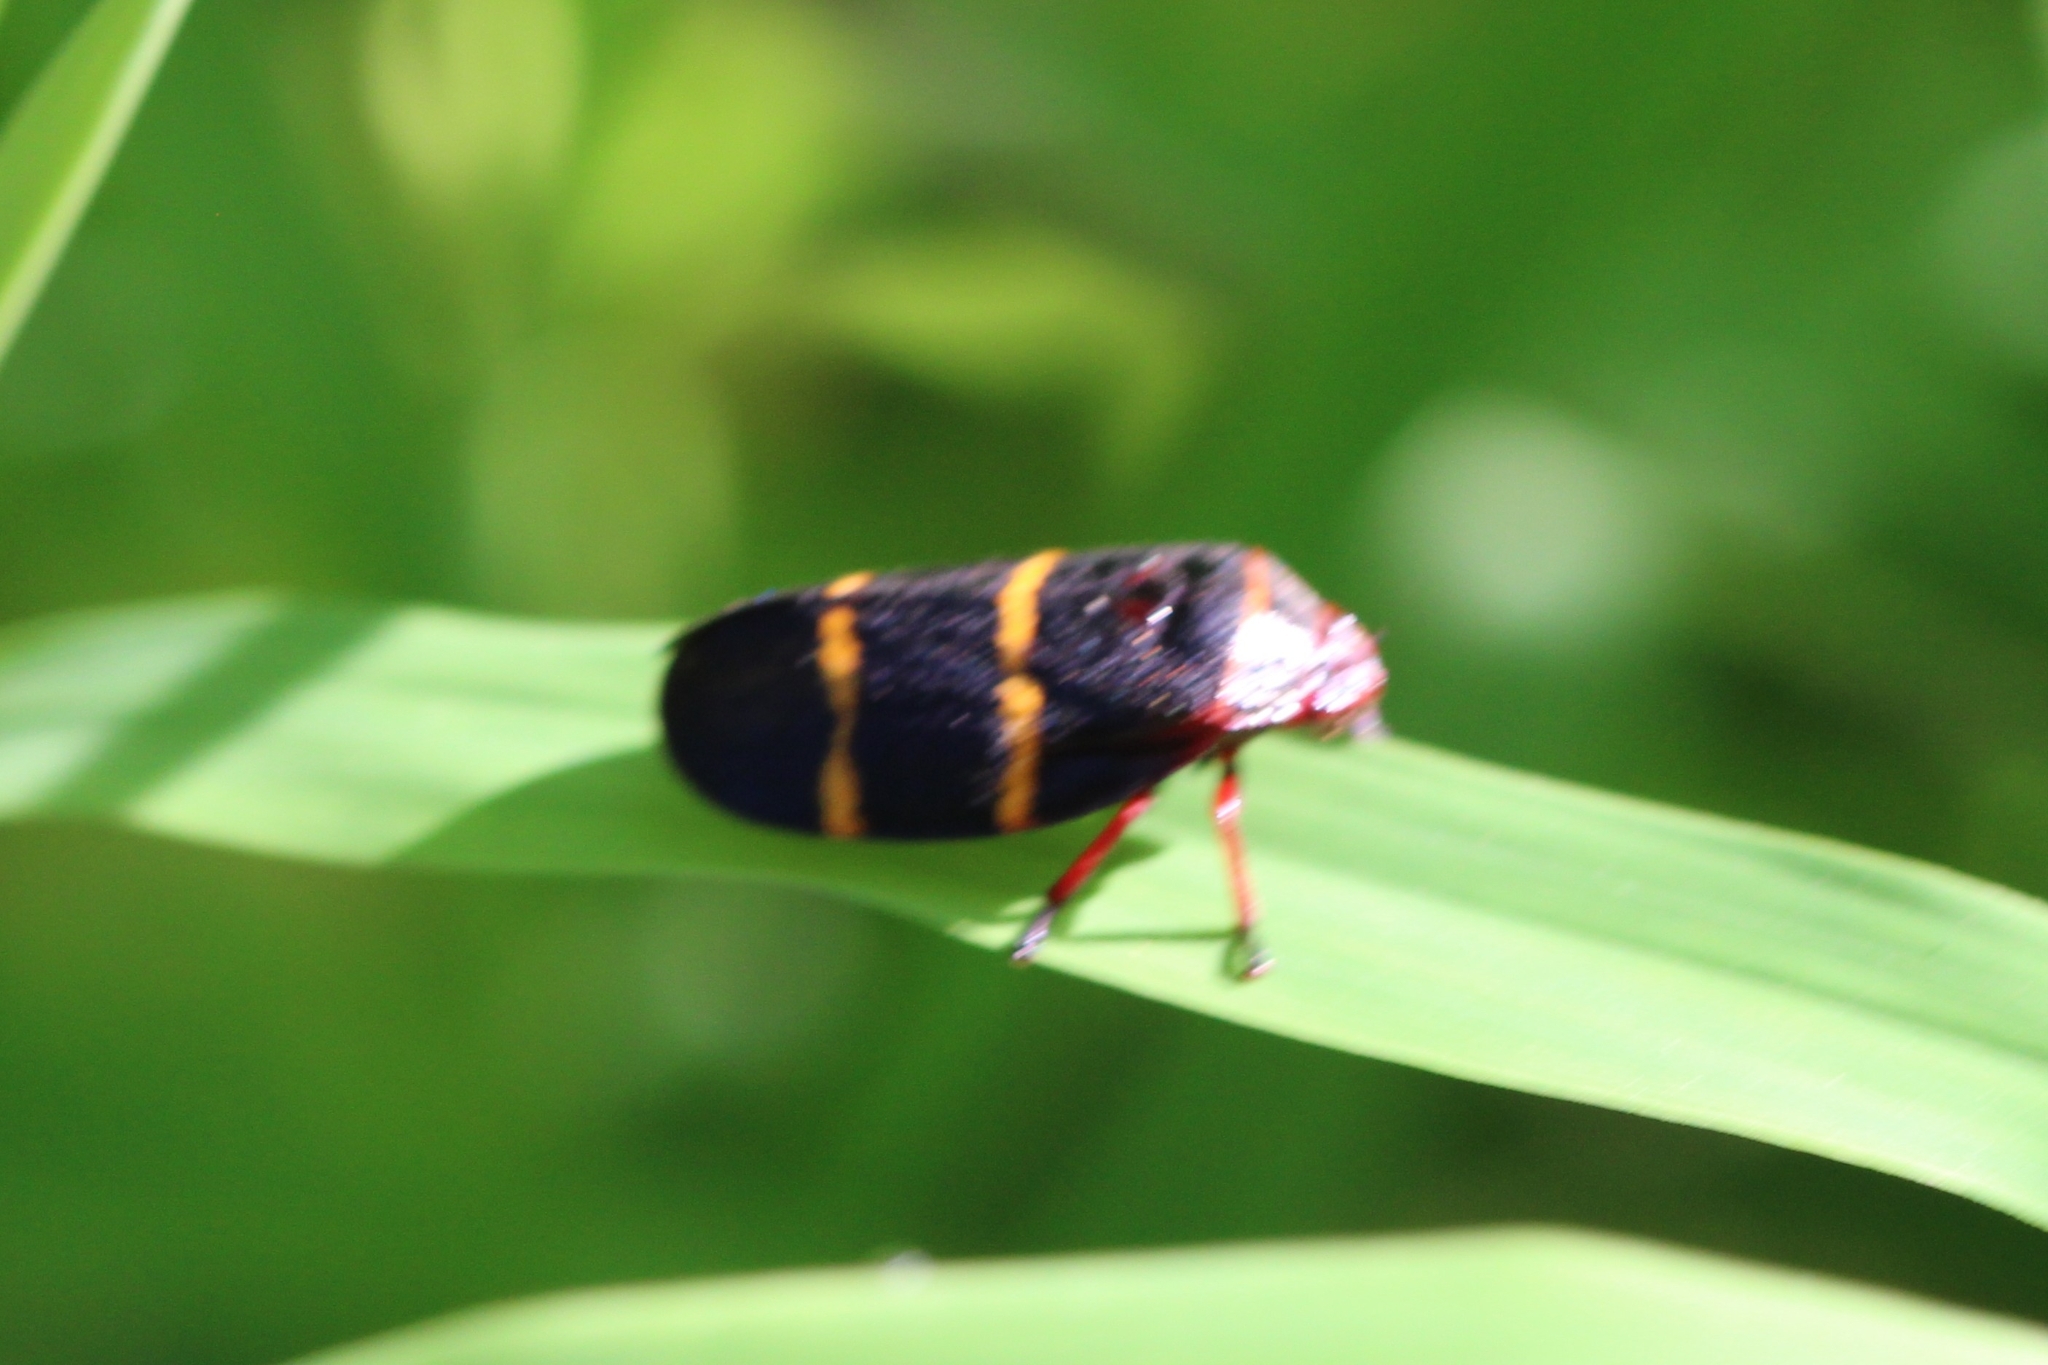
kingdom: Animalia
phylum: Arthropoda
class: Insecta
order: Hemiptera
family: Cercopidae
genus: Prosapia
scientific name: Prosapia bicincta
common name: Twolined spittlebug
